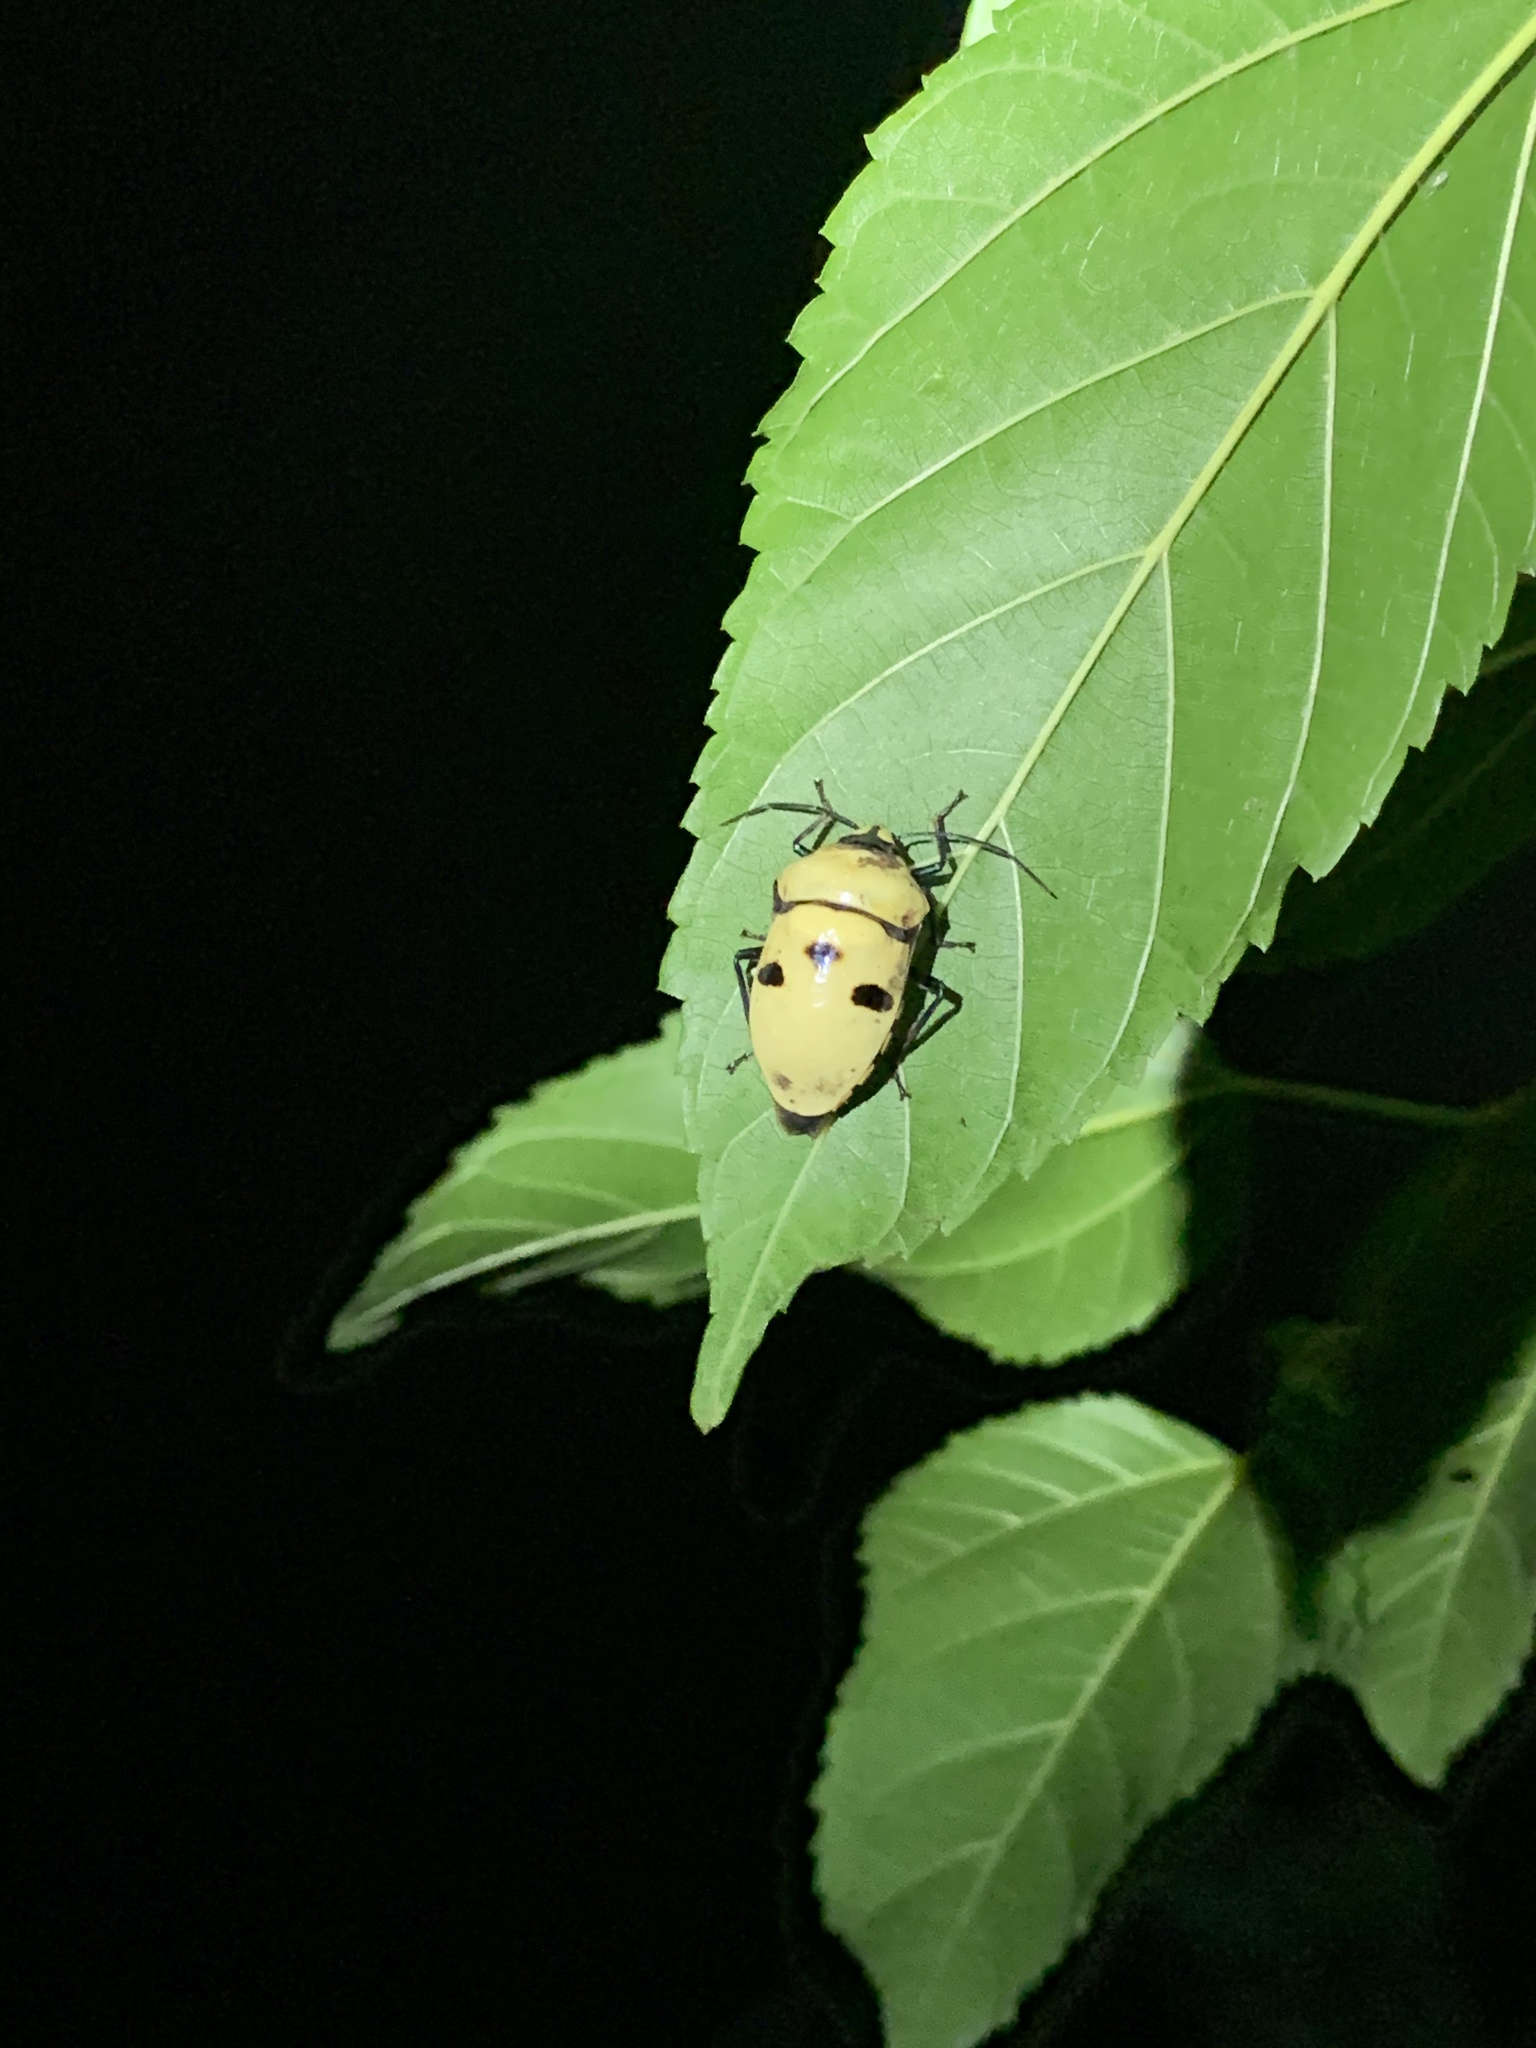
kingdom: Animalia
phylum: Arthropoda
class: Insecta
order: Hemiptera
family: Scutelleridae
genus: Eucorysses
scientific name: Eucorysses grandis
